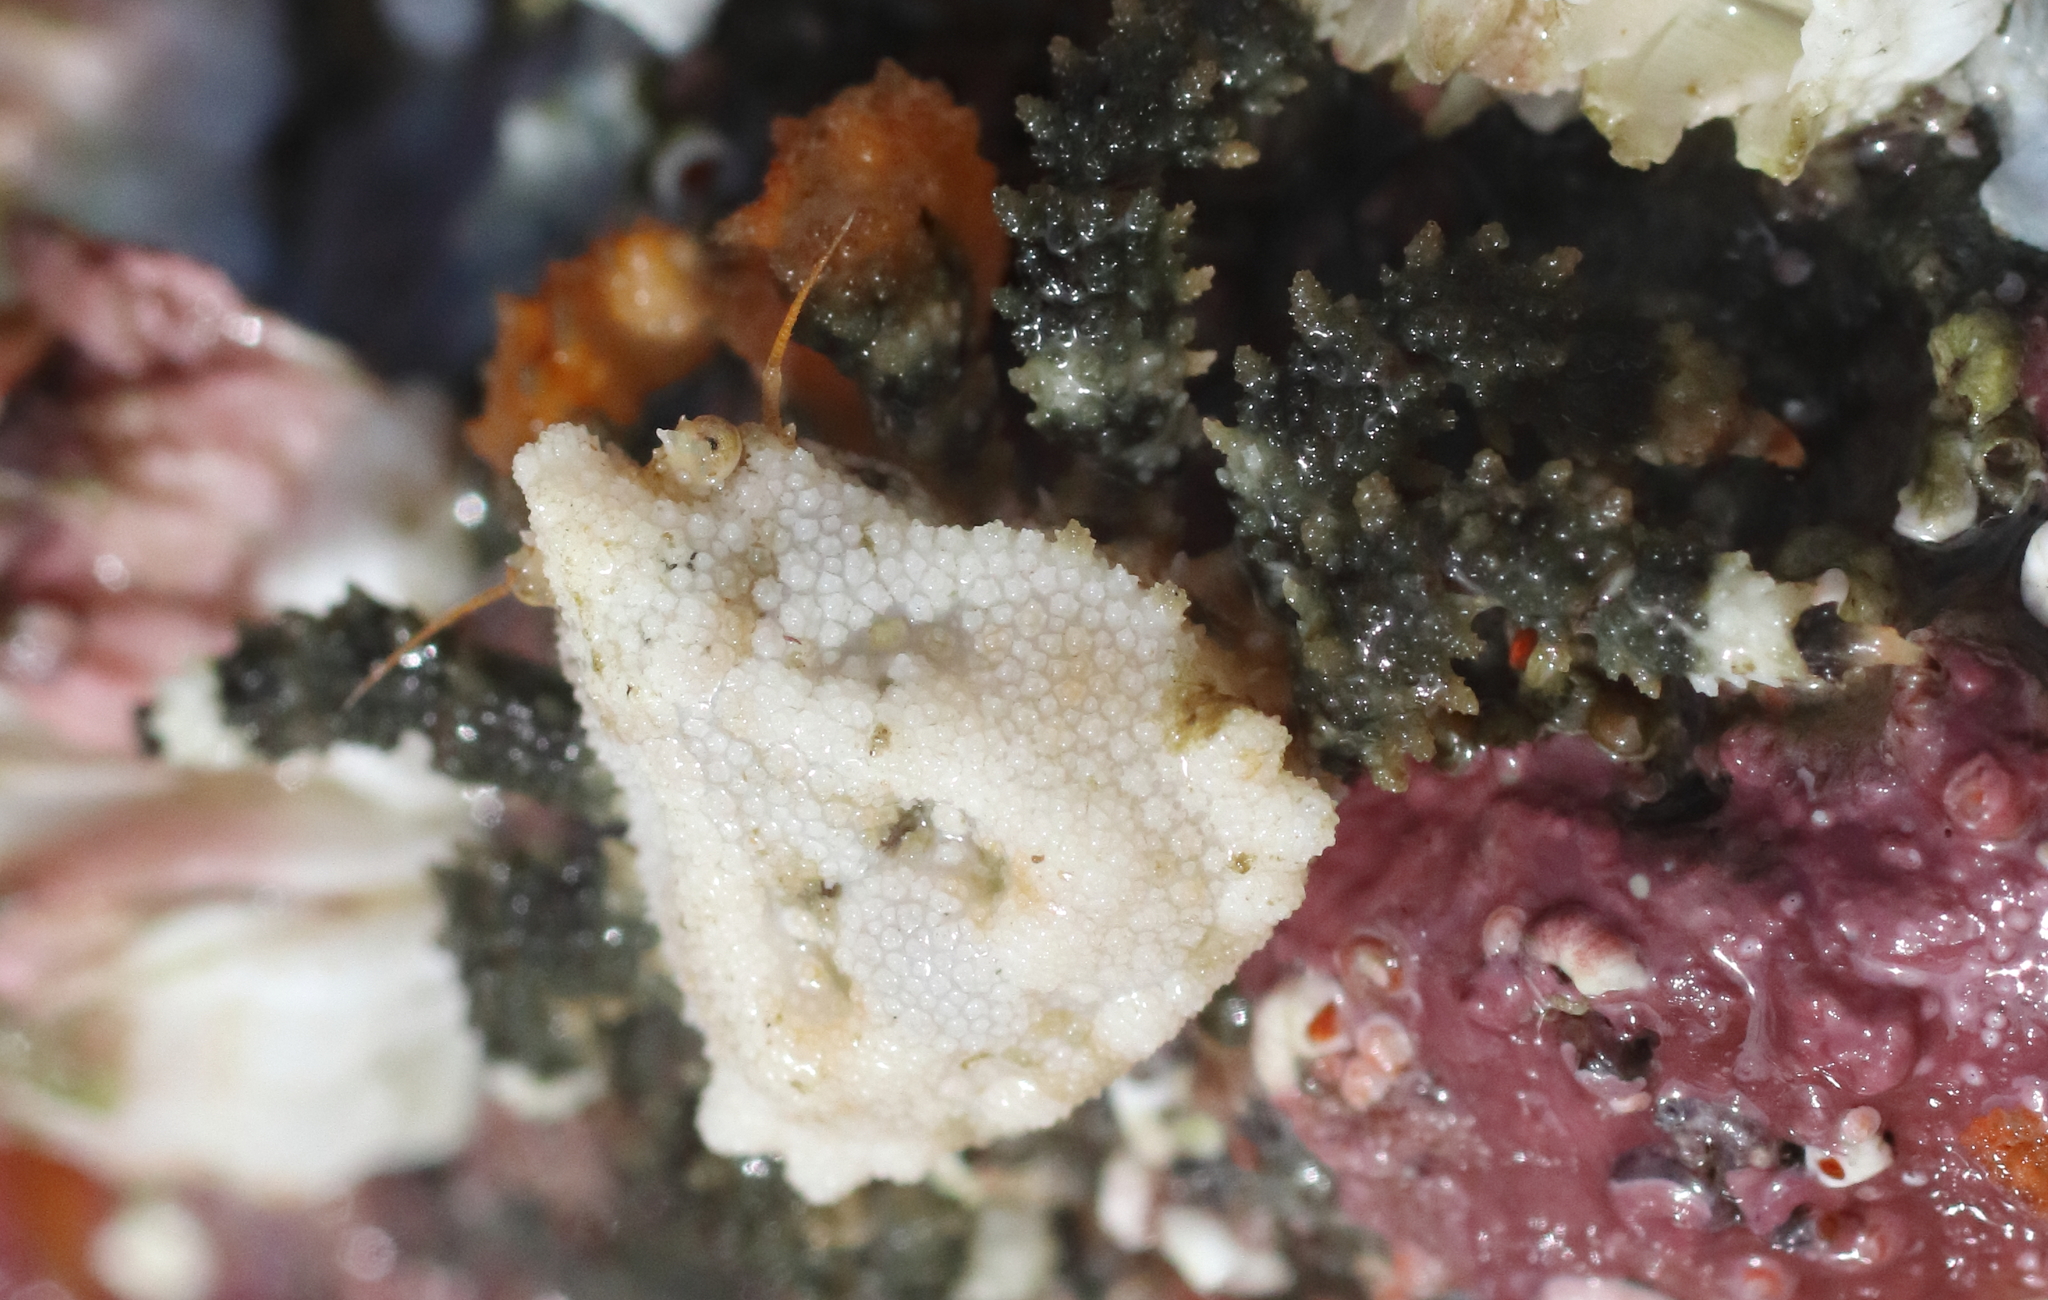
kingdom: Animalia
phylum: Arthropoda
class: Malacostraca
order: Decapoda
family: Lithodidae
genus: Phyllolithodes
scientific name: Phyllolithodes papillosus
